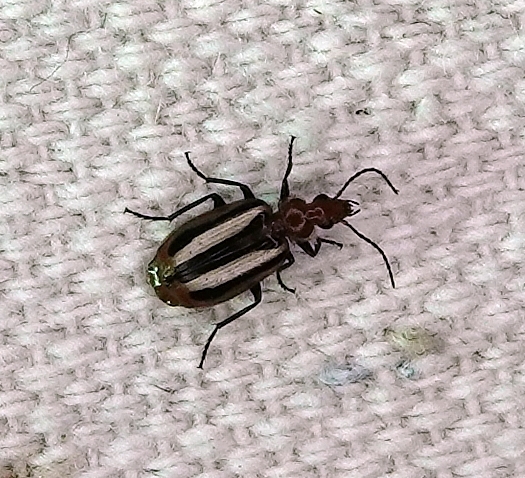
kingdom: Animalia
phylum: Arthropoda
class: Insecta
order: Coleoptera
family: Carabidae
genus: Lebia
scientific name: Lebia vittata
